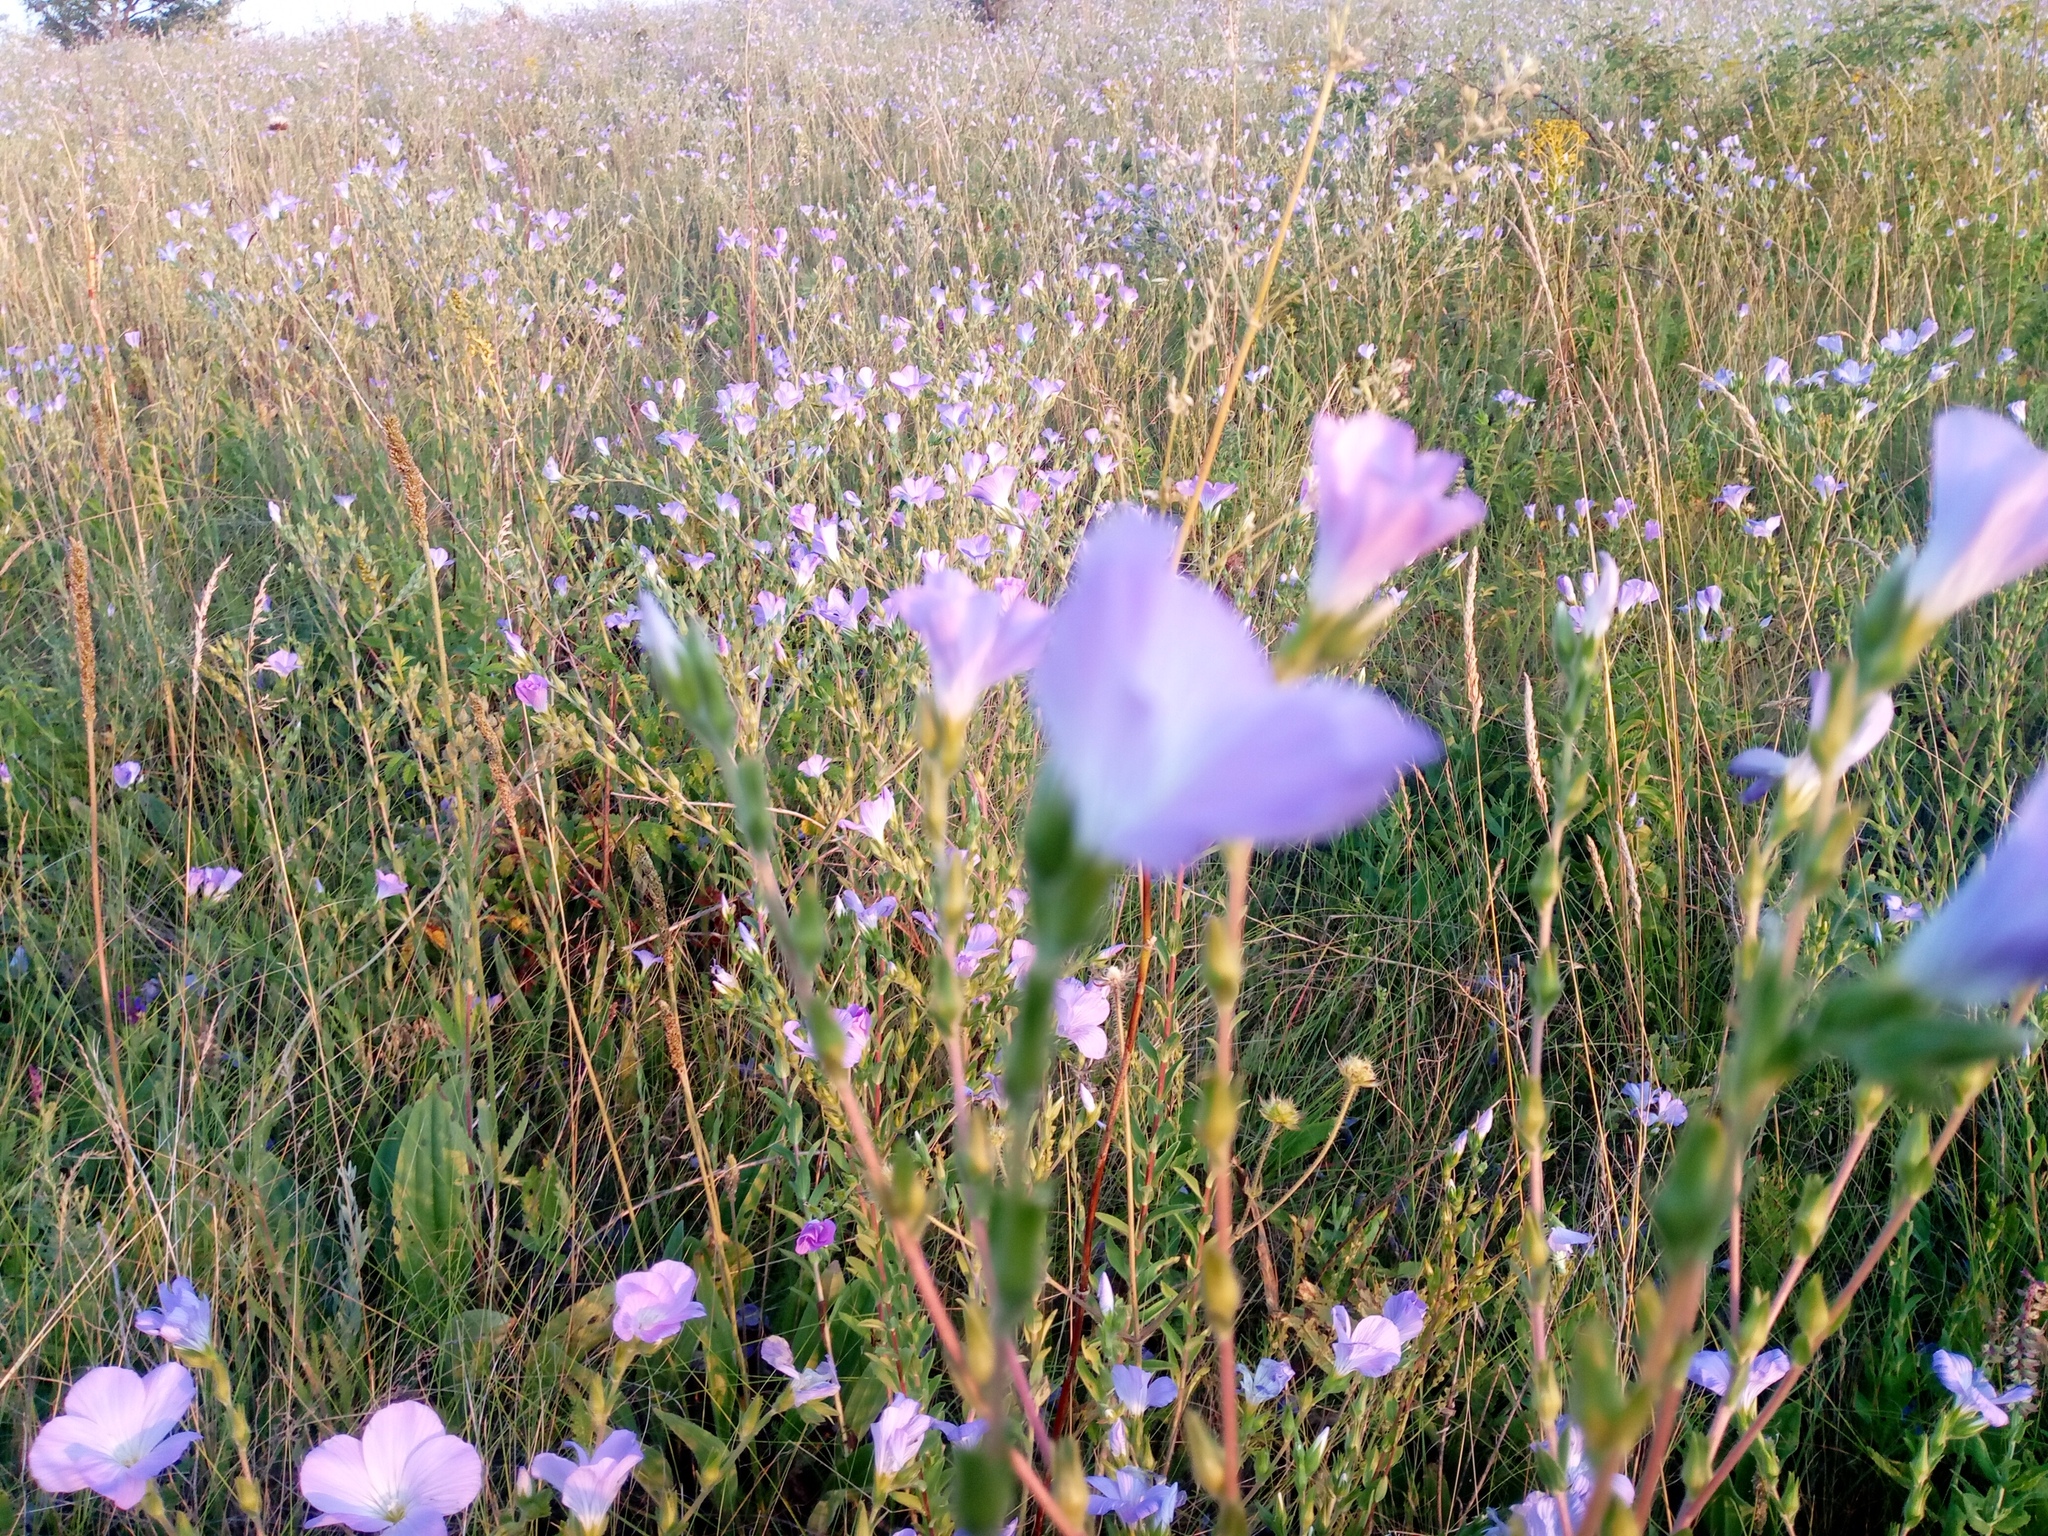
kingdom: Plantae
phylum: Tracheophyta
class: Magnoliopsida
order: Malpighiales
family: Linaceae
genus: Linum
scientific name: Linum hirsutum
